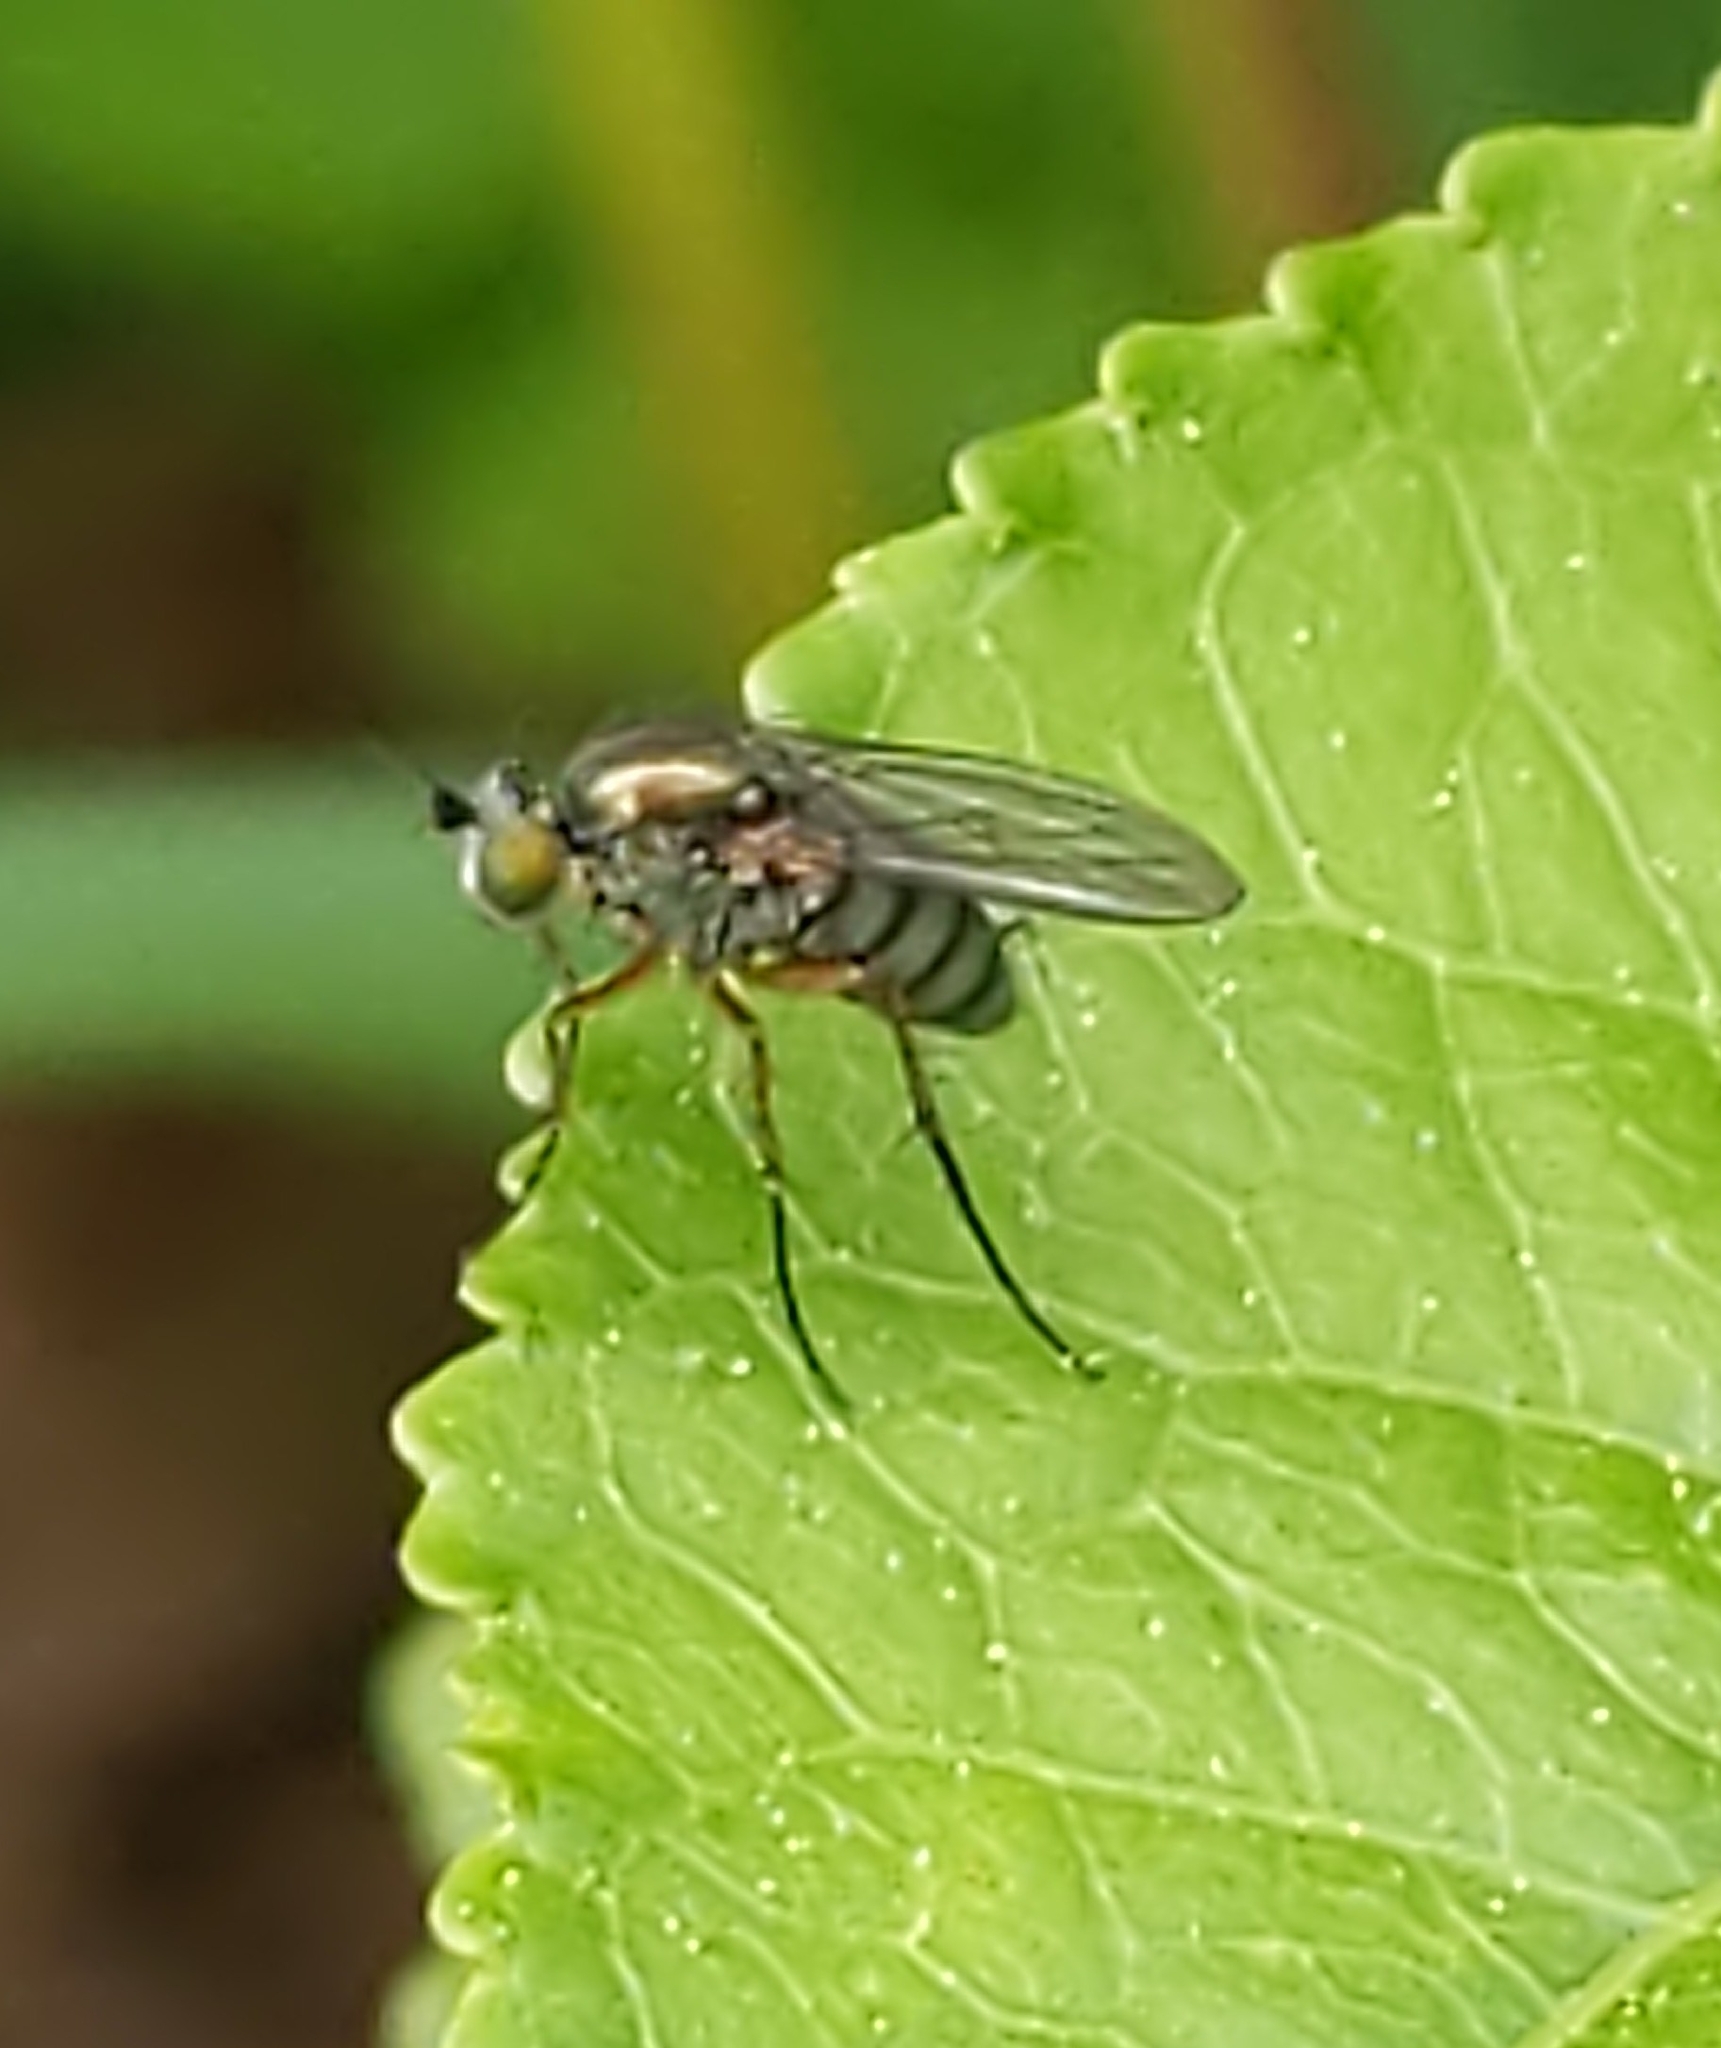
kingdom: Animalia
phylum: Arthropoda
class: Insecta
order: Diptera
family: Dolichopodidae
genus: Dolichopus
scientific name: Dolichopus
